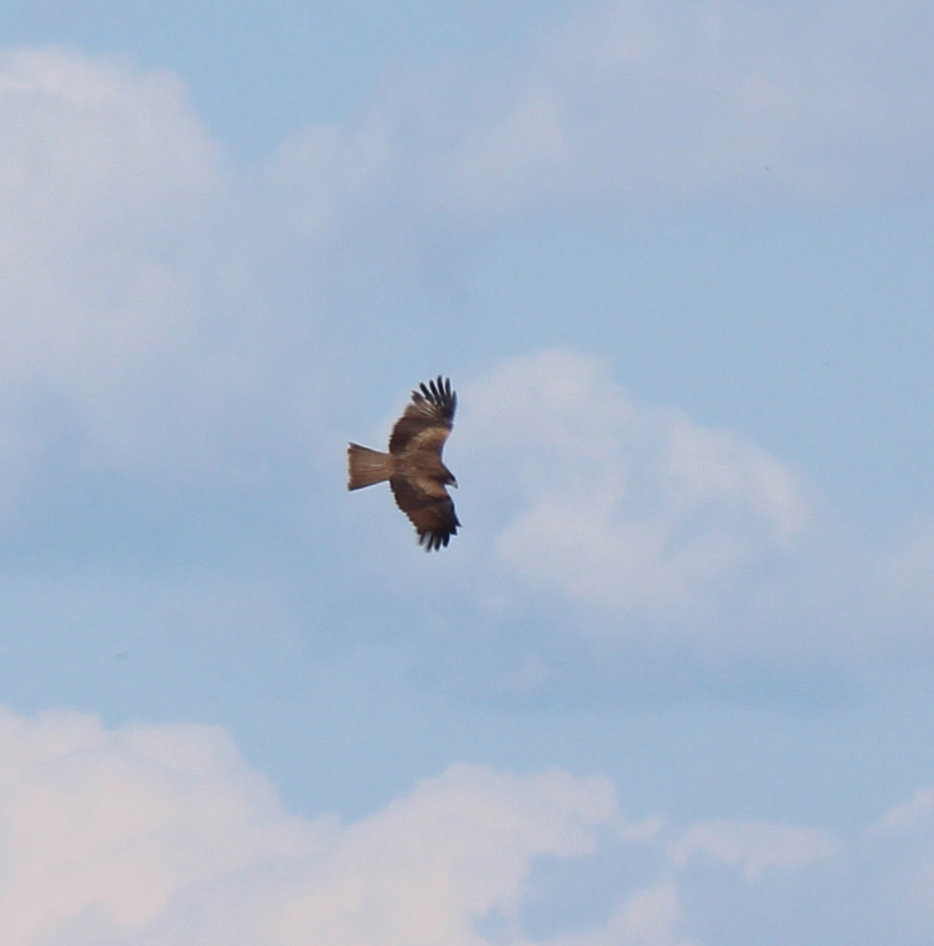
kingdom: Animalia
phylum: Chordata
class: Aves
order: Accipitriformes
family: Accipitridae
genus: Milvus
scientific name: Milvus migrans
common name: Black kite
